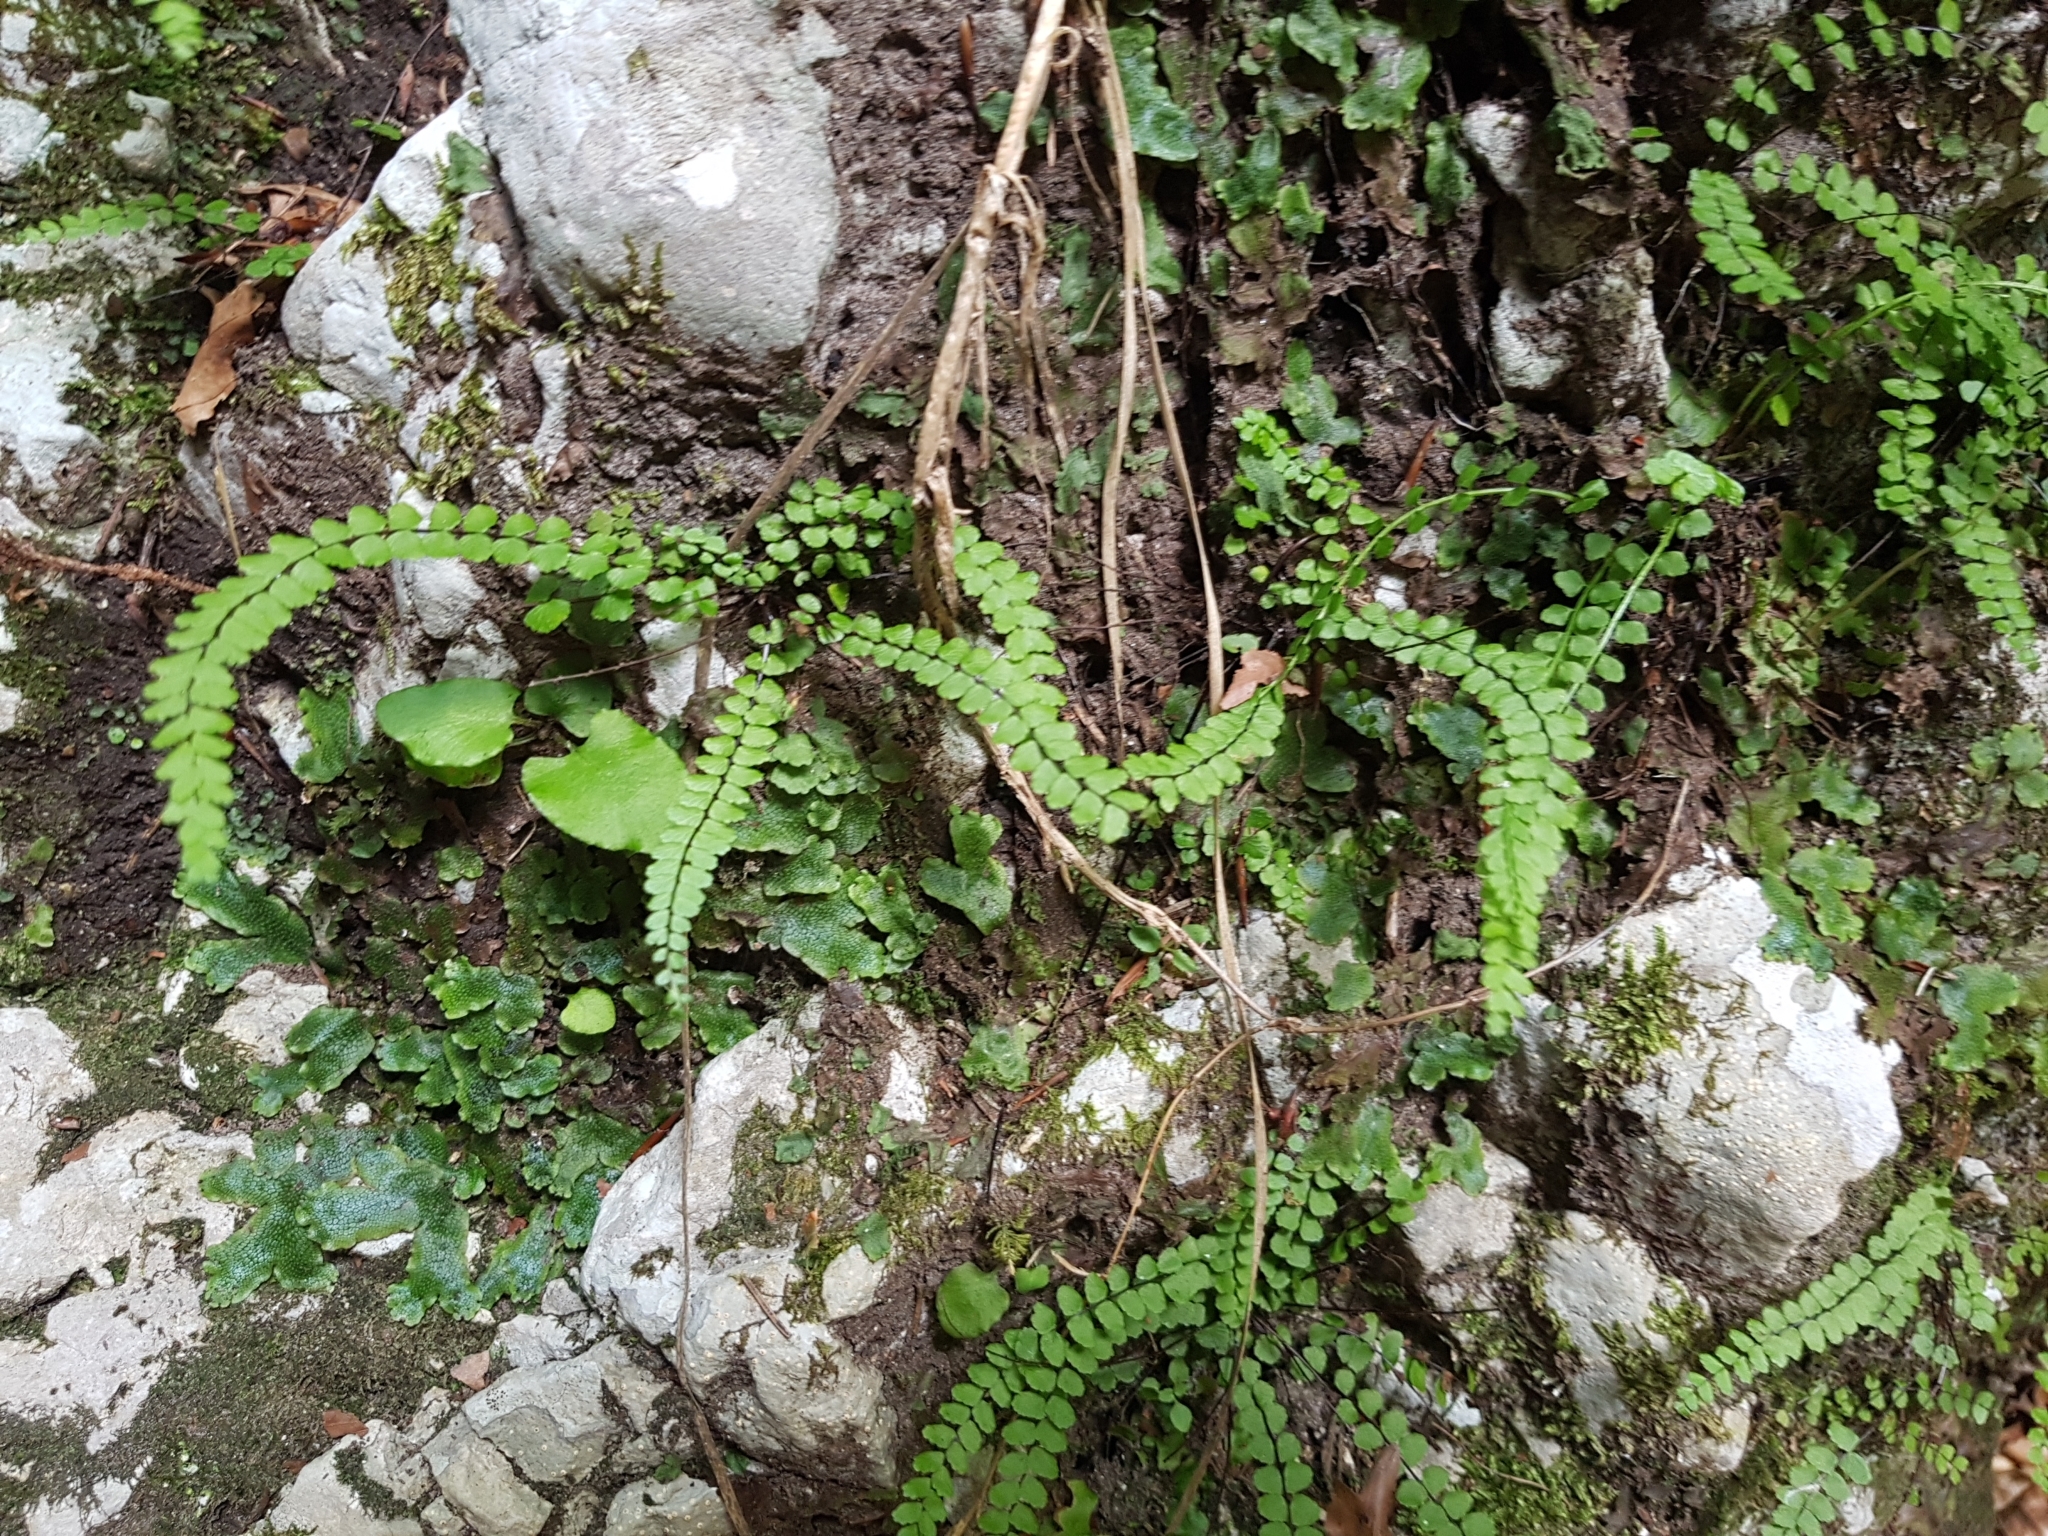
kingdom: Plantae
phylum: Tracheophyta
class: Polypodiopsida
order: Polypodiales
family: Aspleniaceae
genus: Asplenium
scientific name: Asplenium trichomanes
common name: Maidenhair spleenwort
